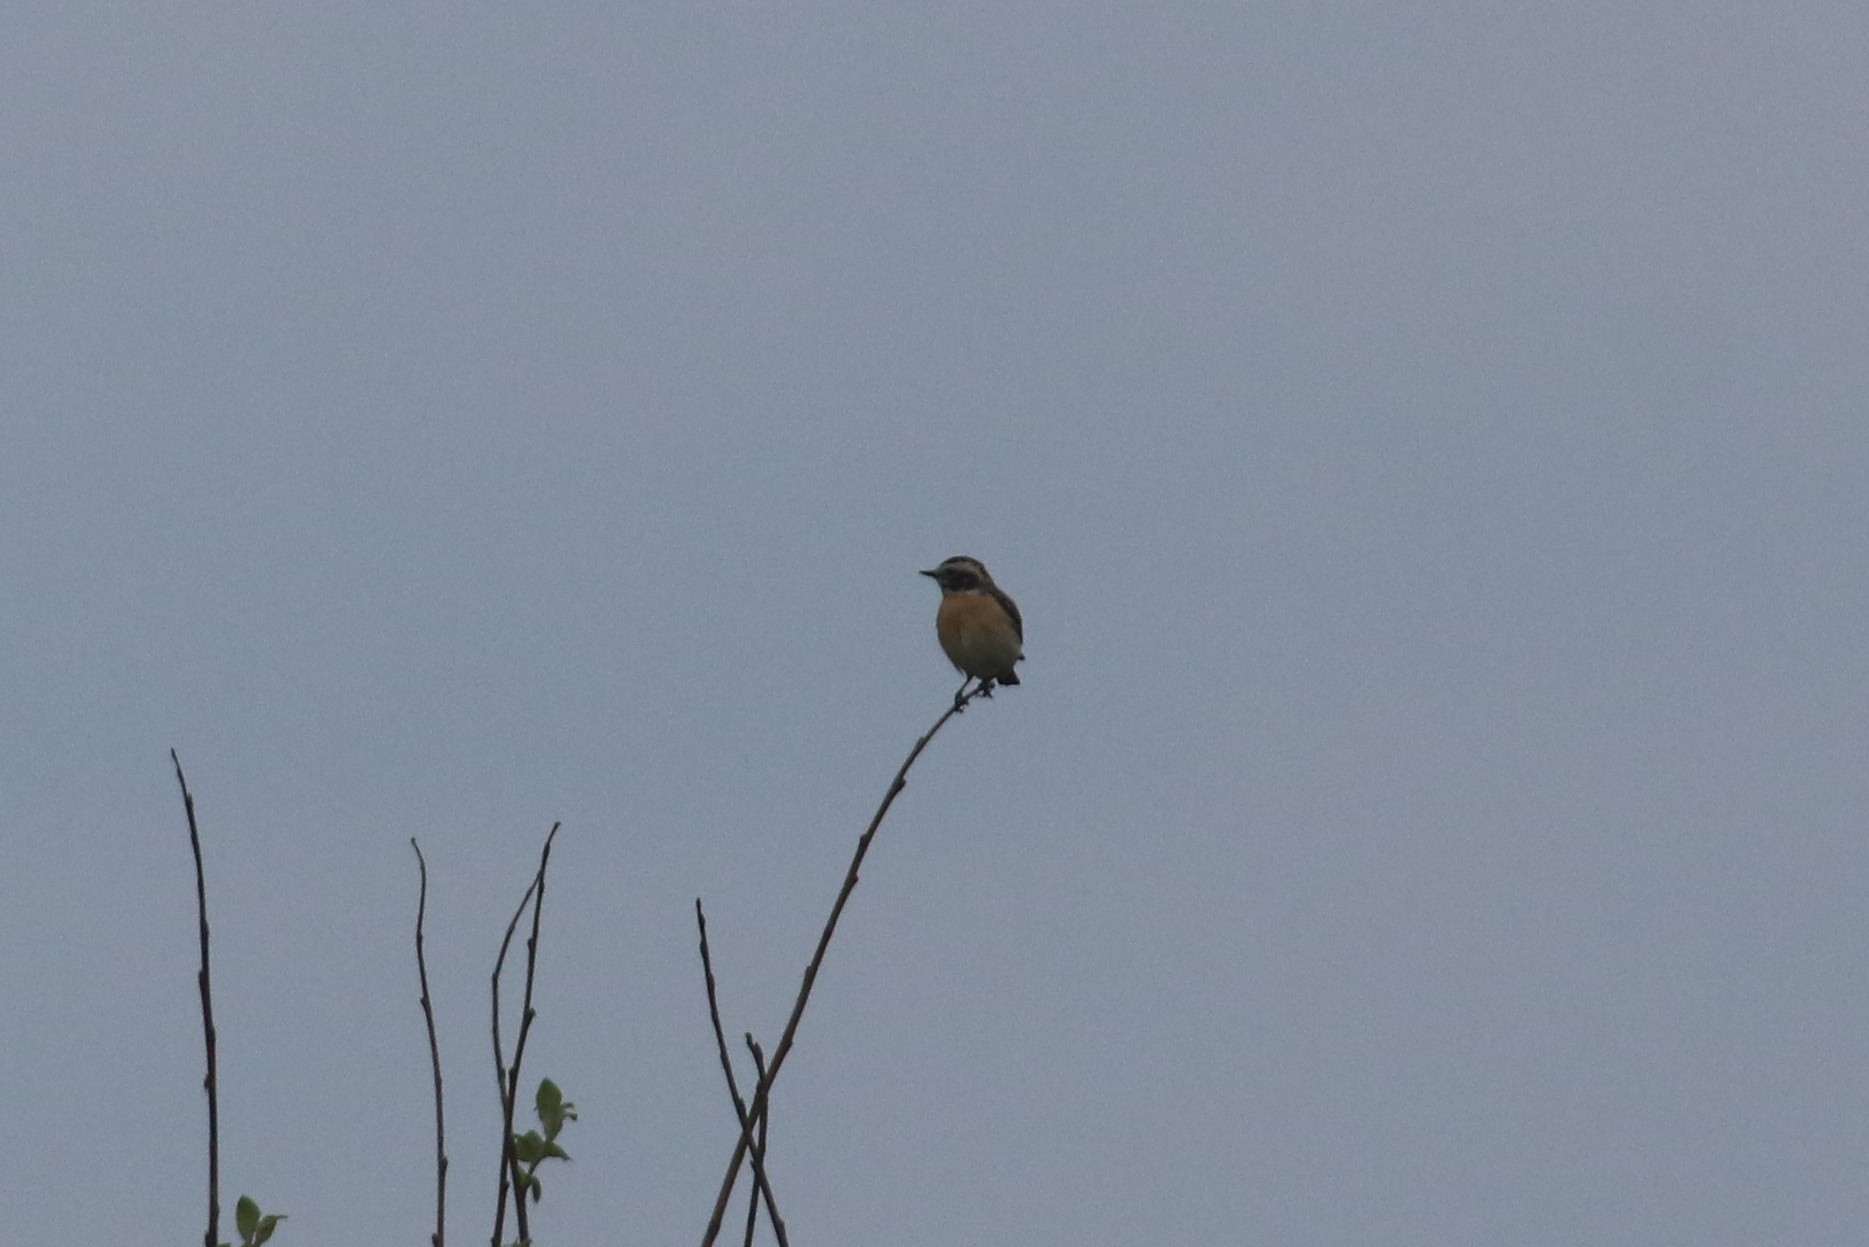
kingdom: Animalia
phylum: Chordata
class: Aves
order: Passeriformes
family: Muscicapidae
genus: Saxicola
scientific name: Saxicola rubetra
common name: Whinchat
